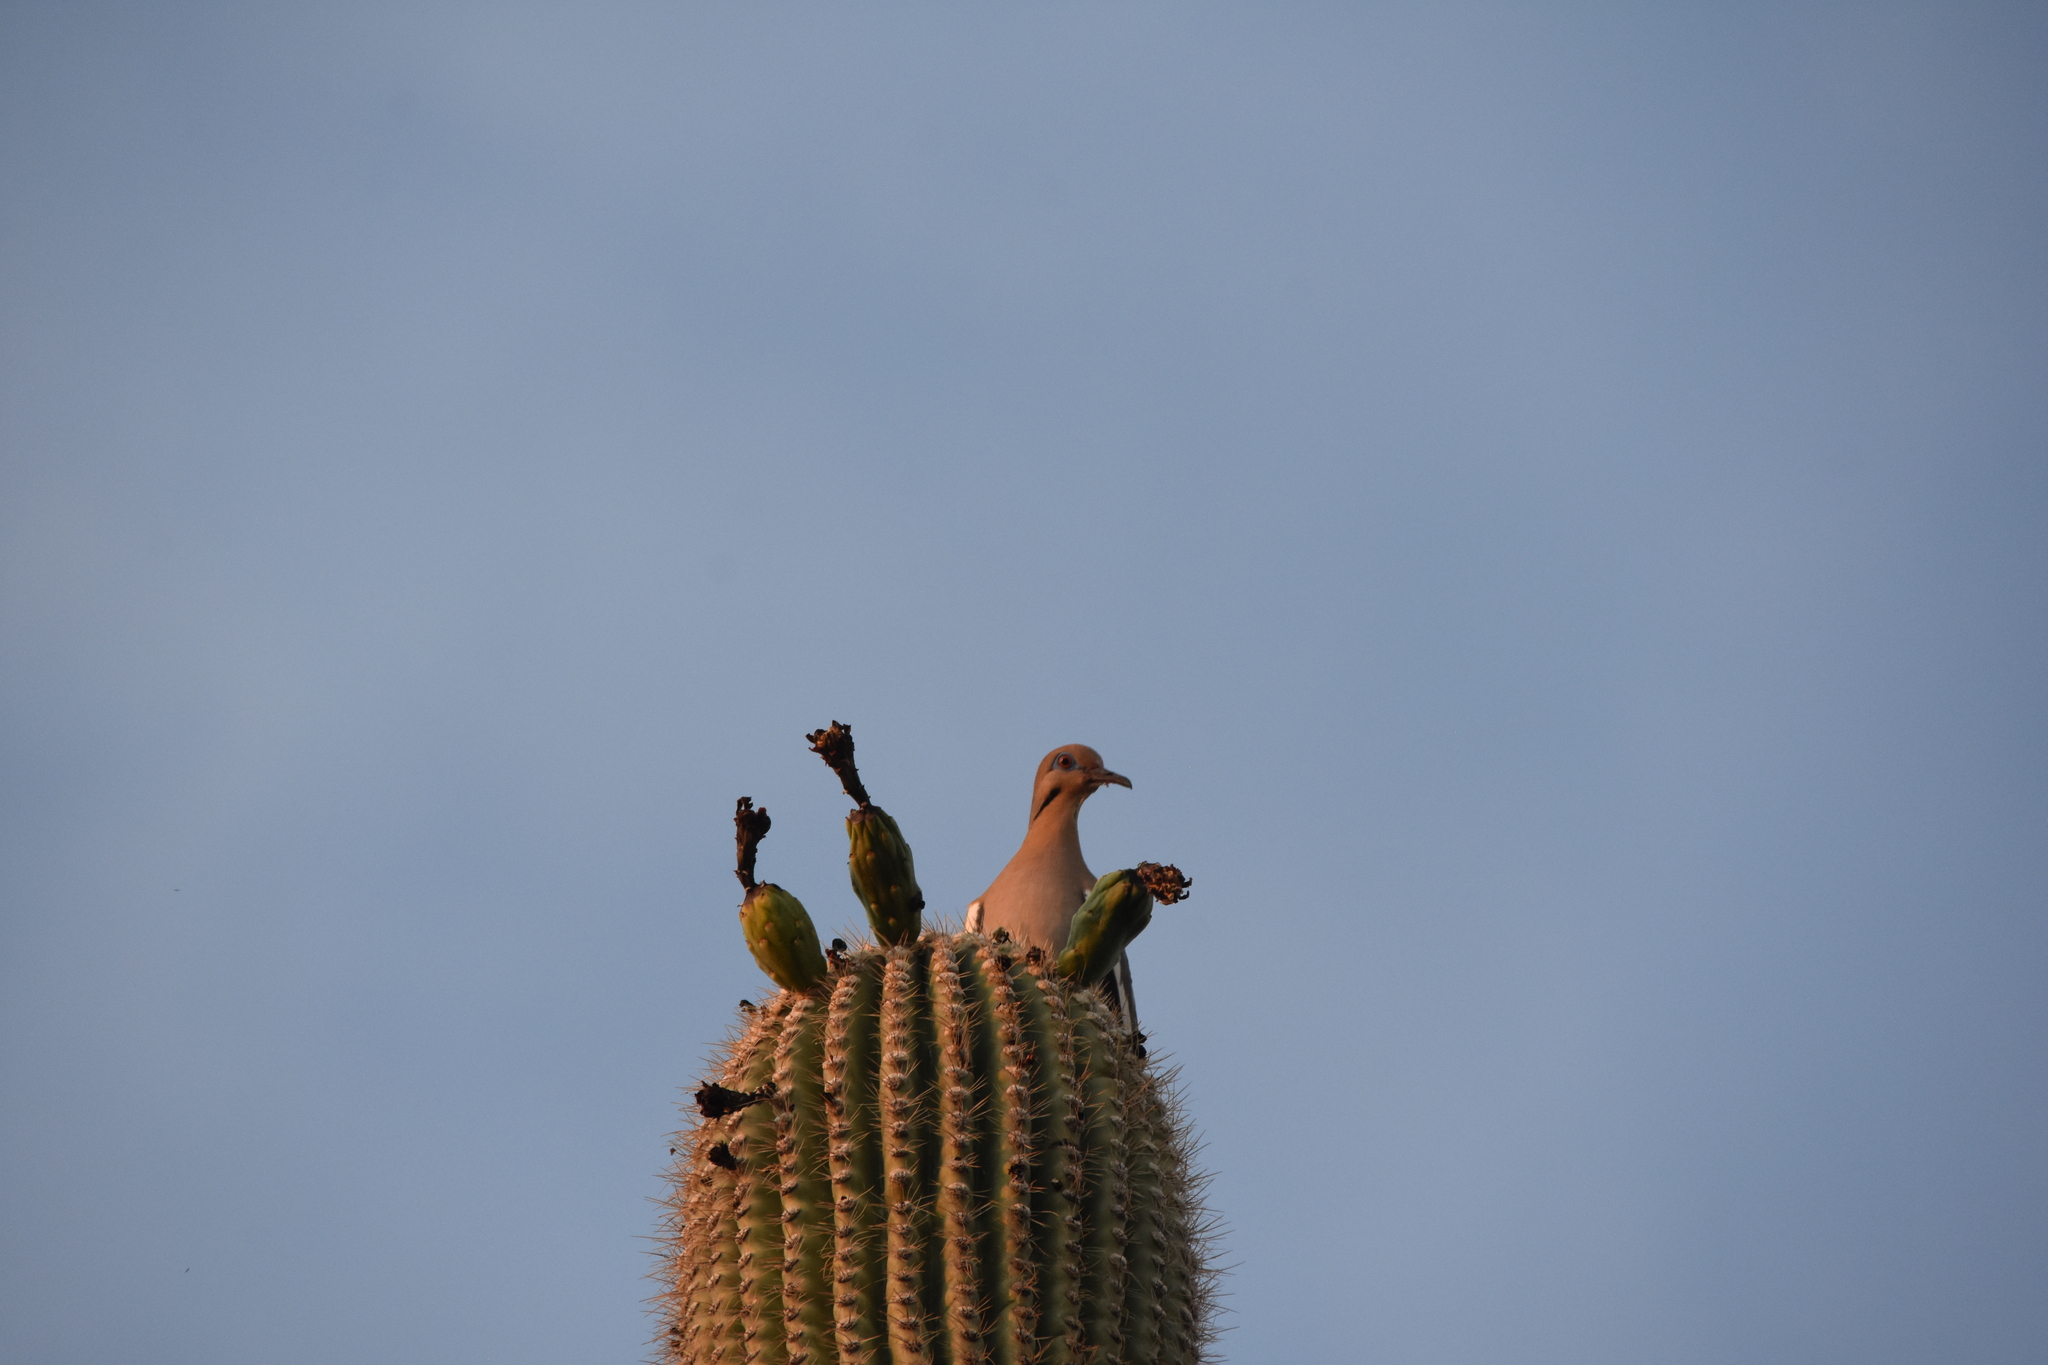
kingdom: Animalia
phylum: Chordata
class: Aves
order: Columbiformes
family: Columbidae
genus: Zenaida
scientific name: Zenaida asiatica
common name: White-winged dove
